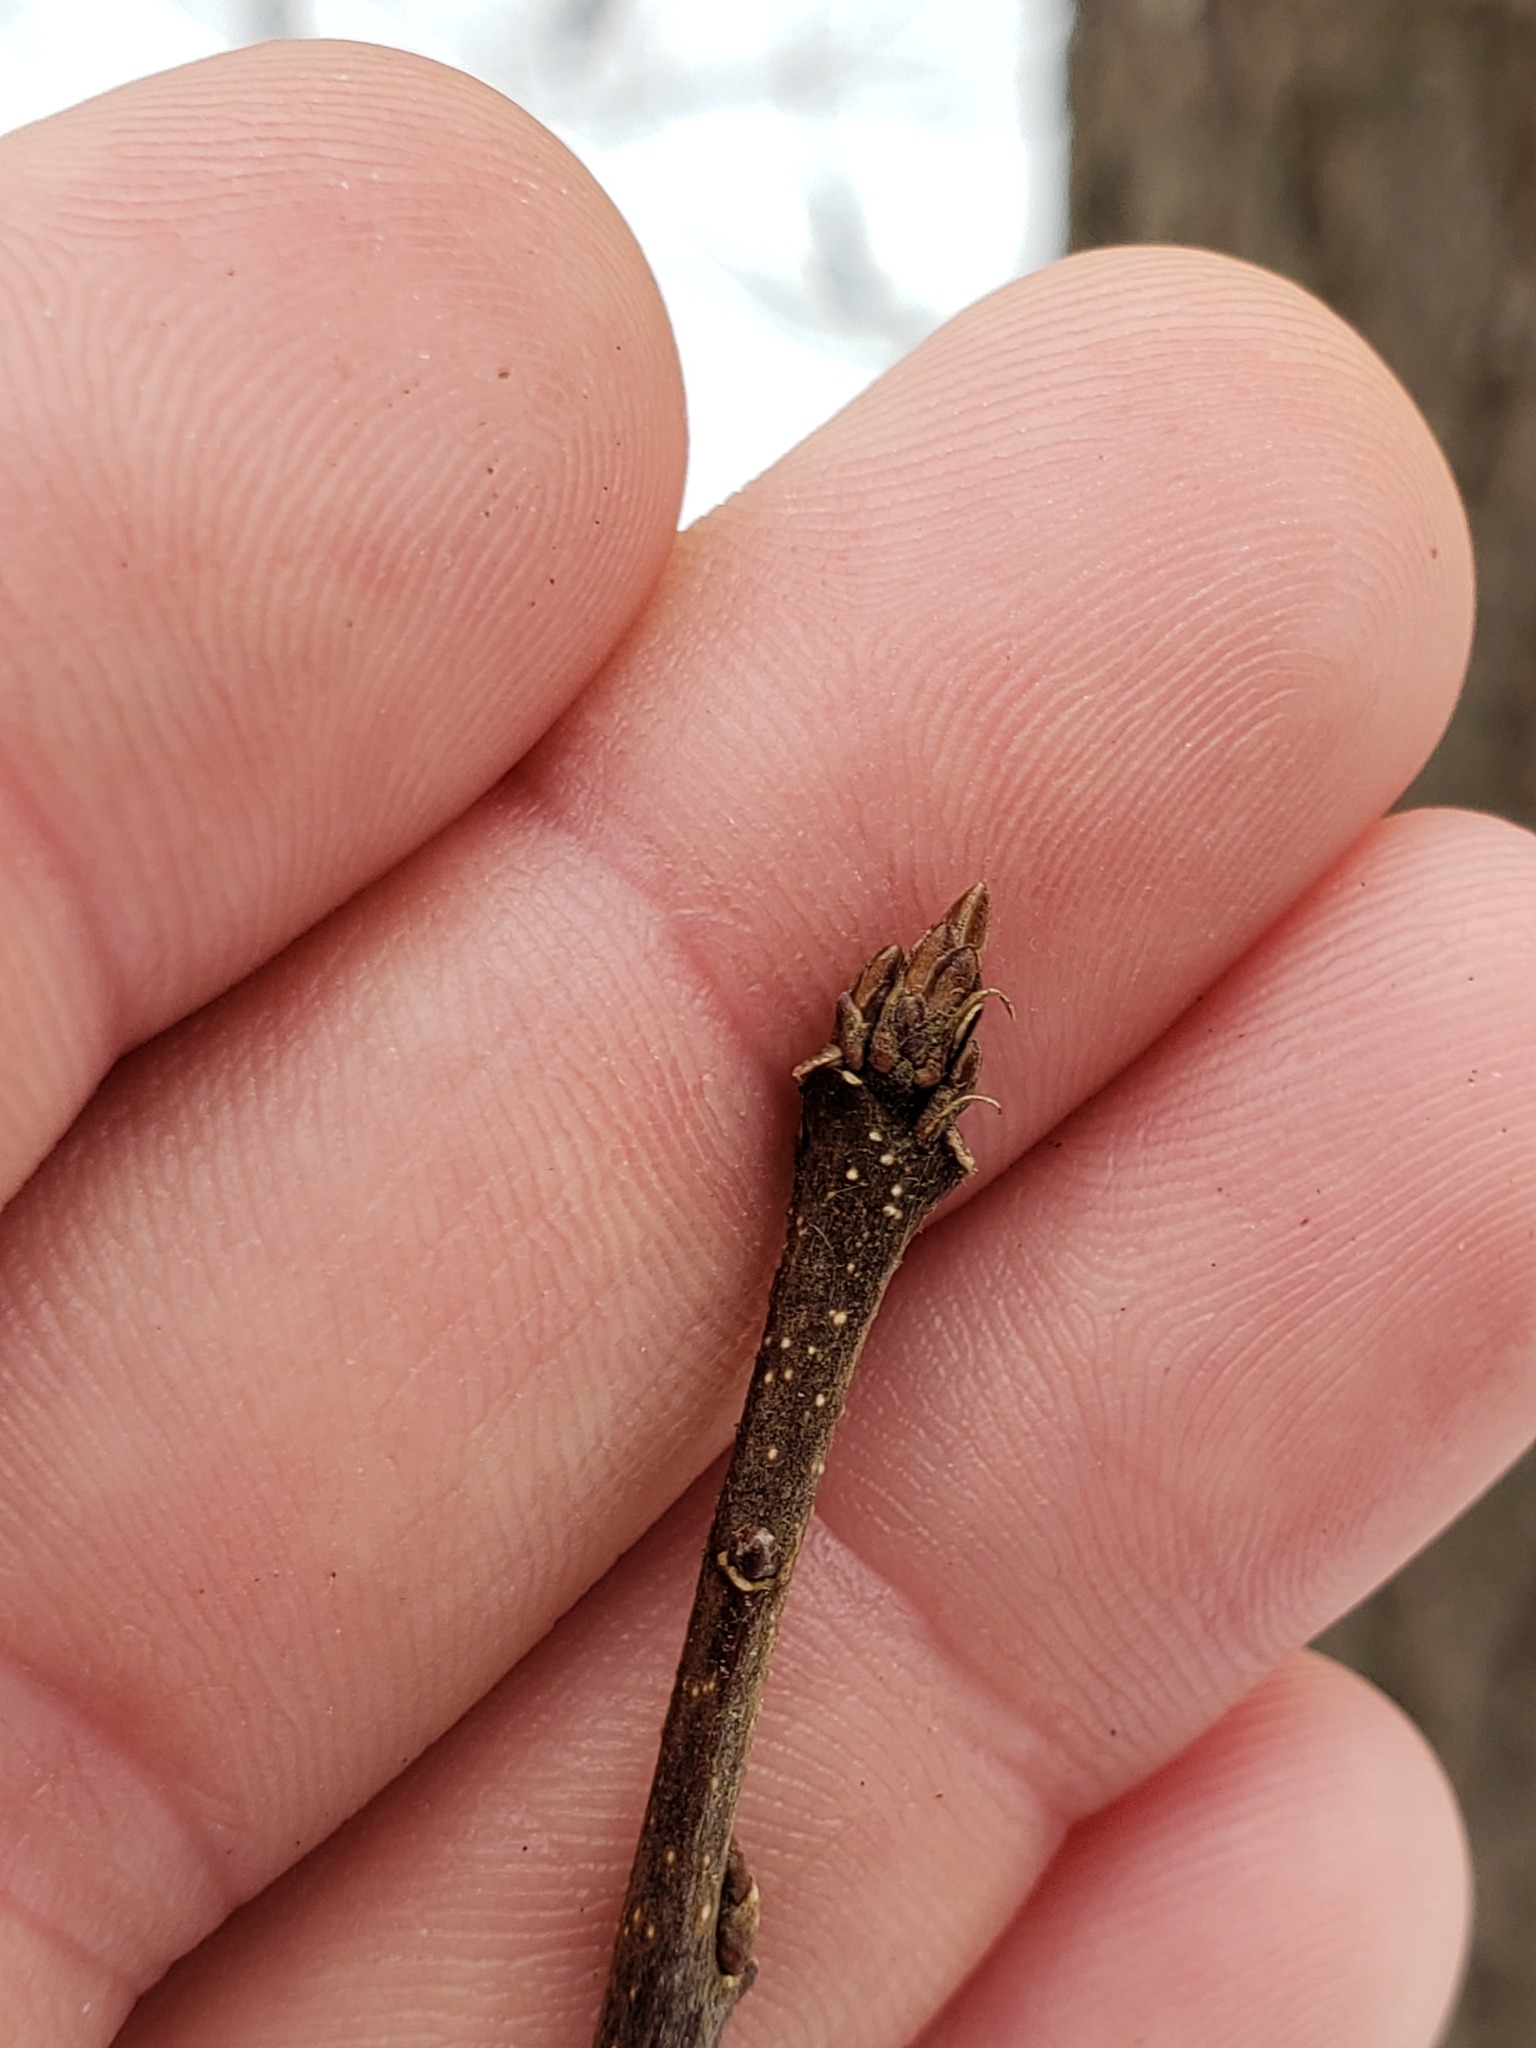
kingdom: Animalia
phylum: Arthropoda
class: Insecta
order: Hymenoptera
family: Cynipidae
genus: Andricus
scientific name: Andricus
